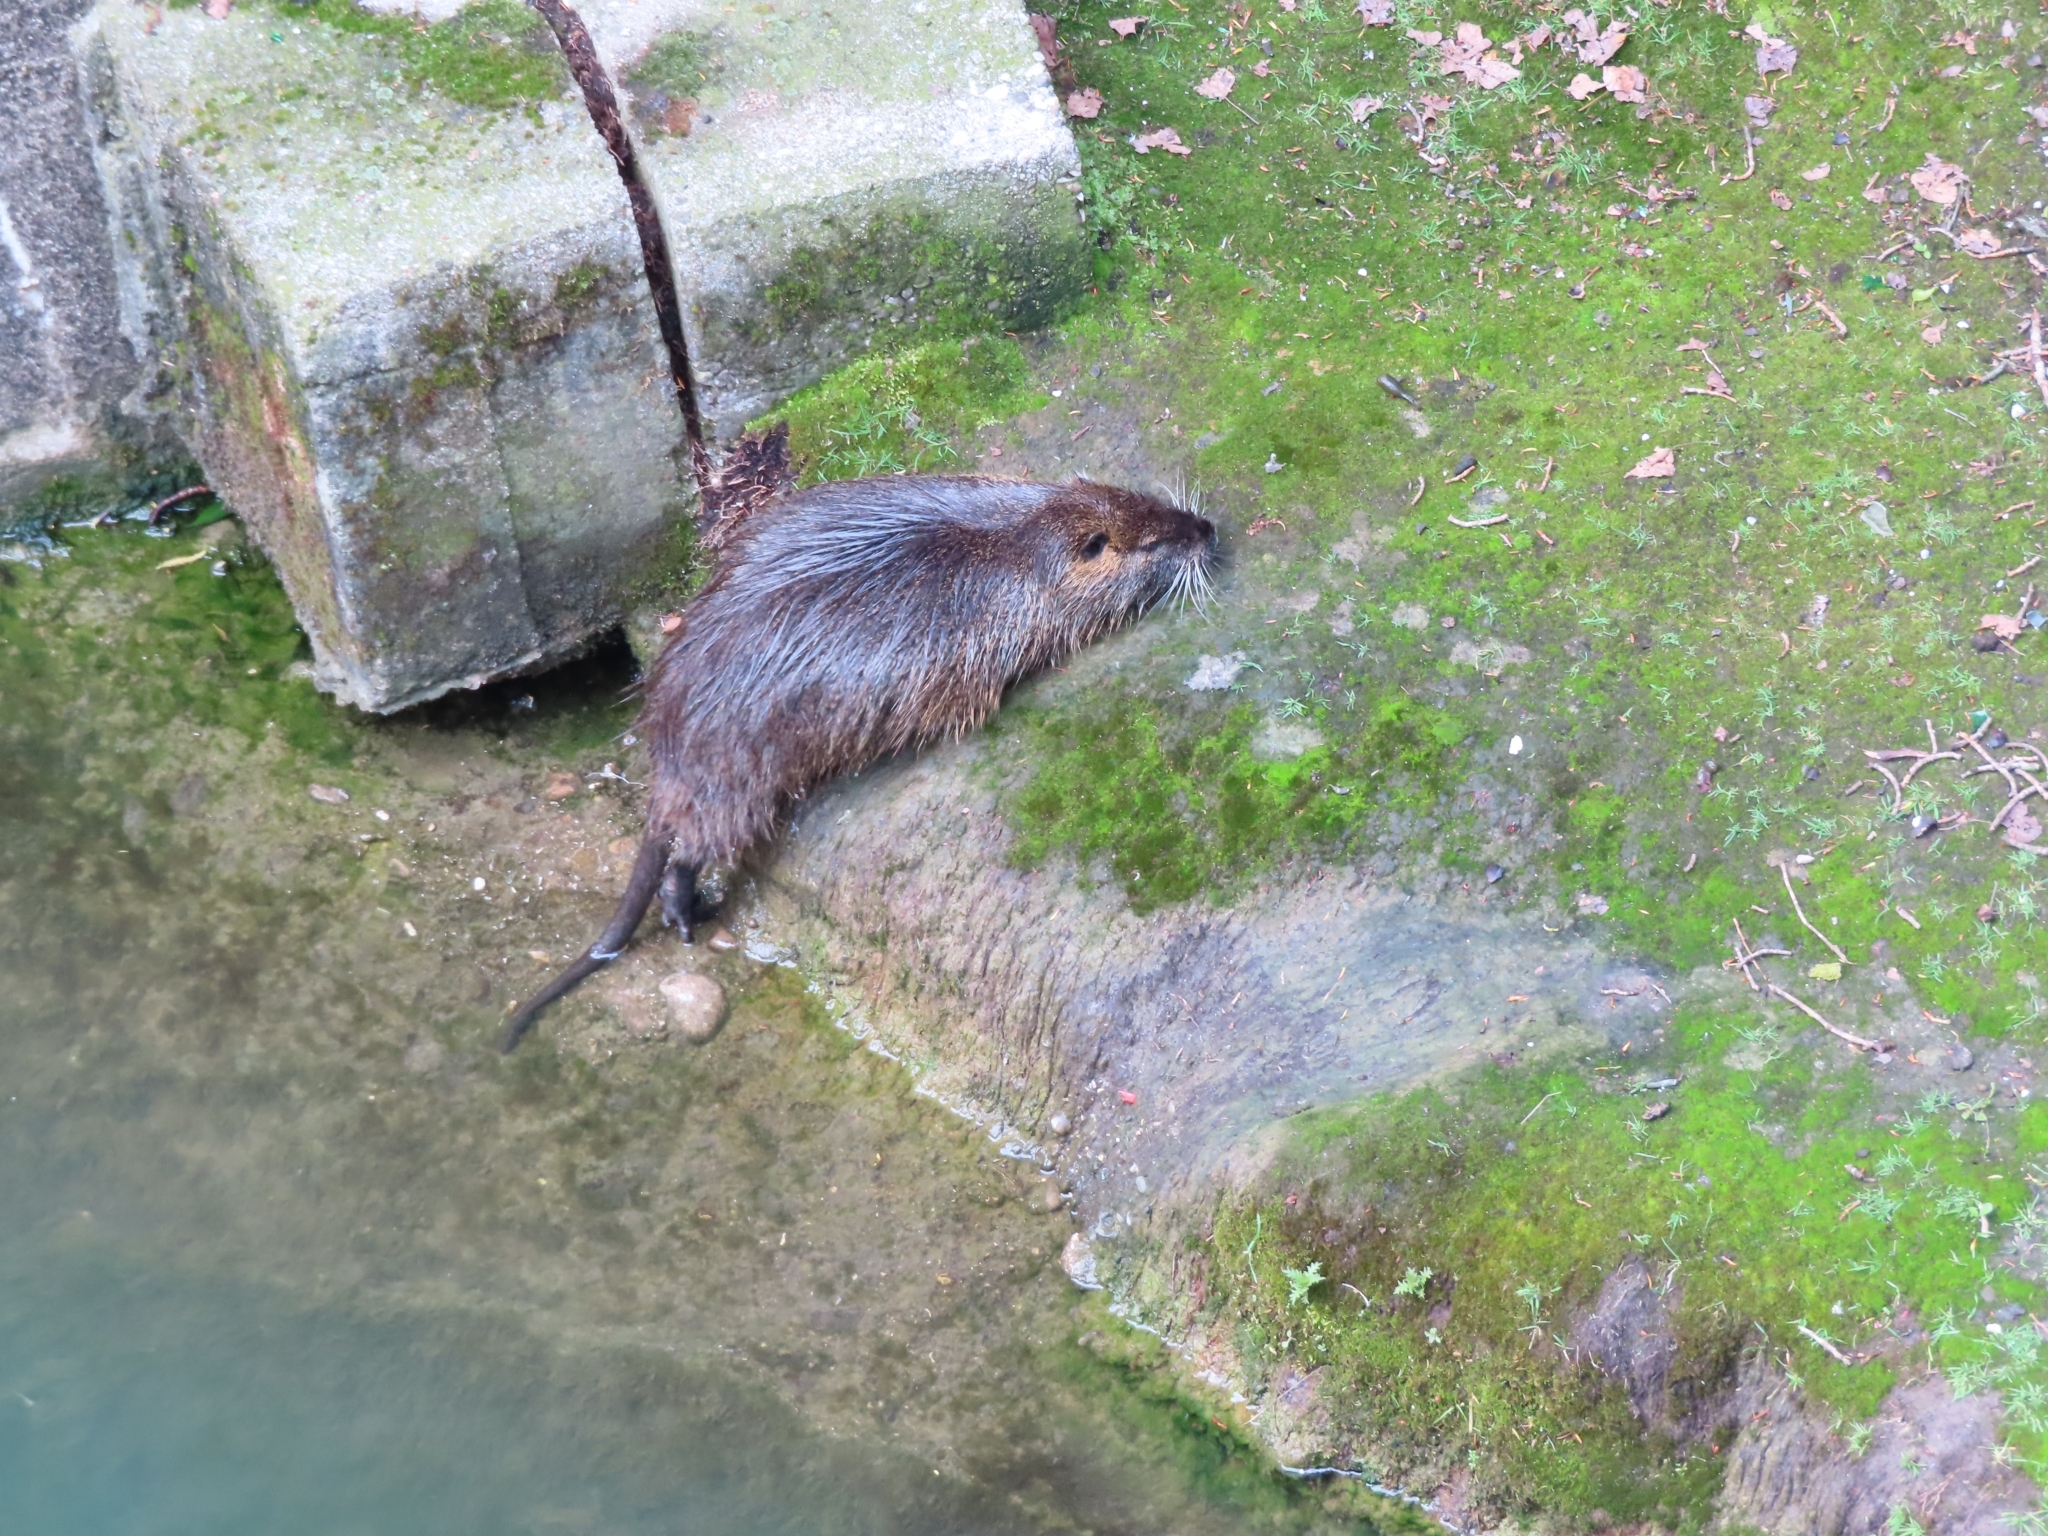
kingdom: Animalia
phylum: Chordata
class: Mammalia
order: Rodentia
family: Myocastoridae
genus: Myocastor
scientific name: Myocastor coypus
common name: Coypu
